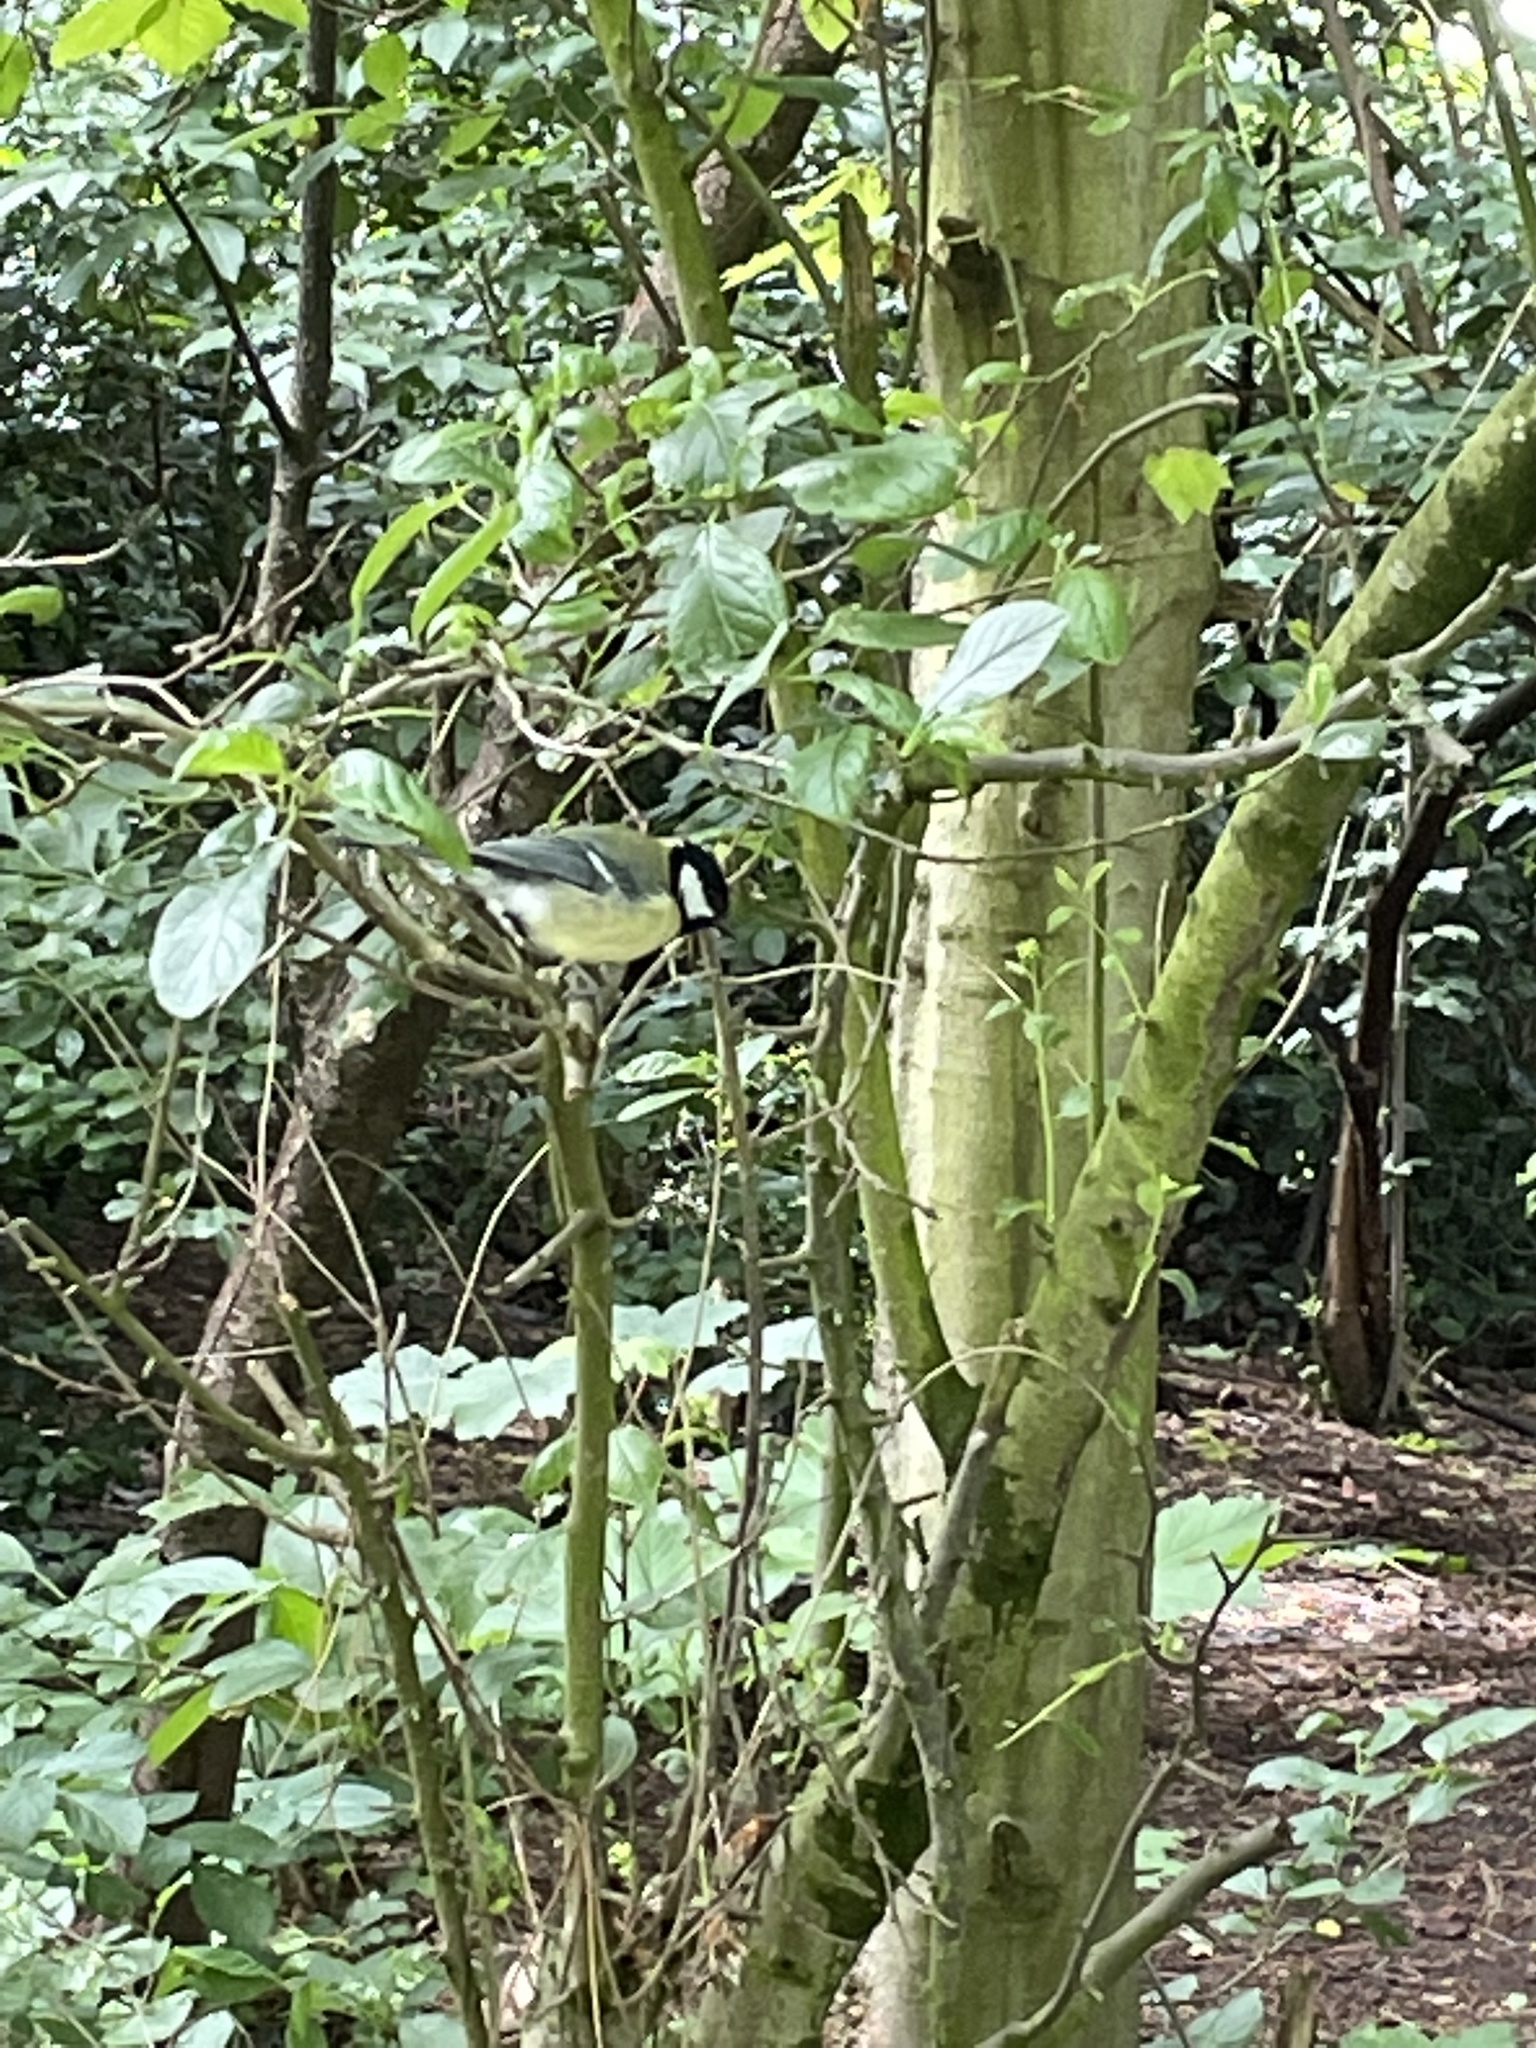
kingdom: Animalia
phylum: Chordata
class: Aves
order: Passeriformes
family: Paridae
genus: Parus
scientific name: Parus major
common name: Great tit
